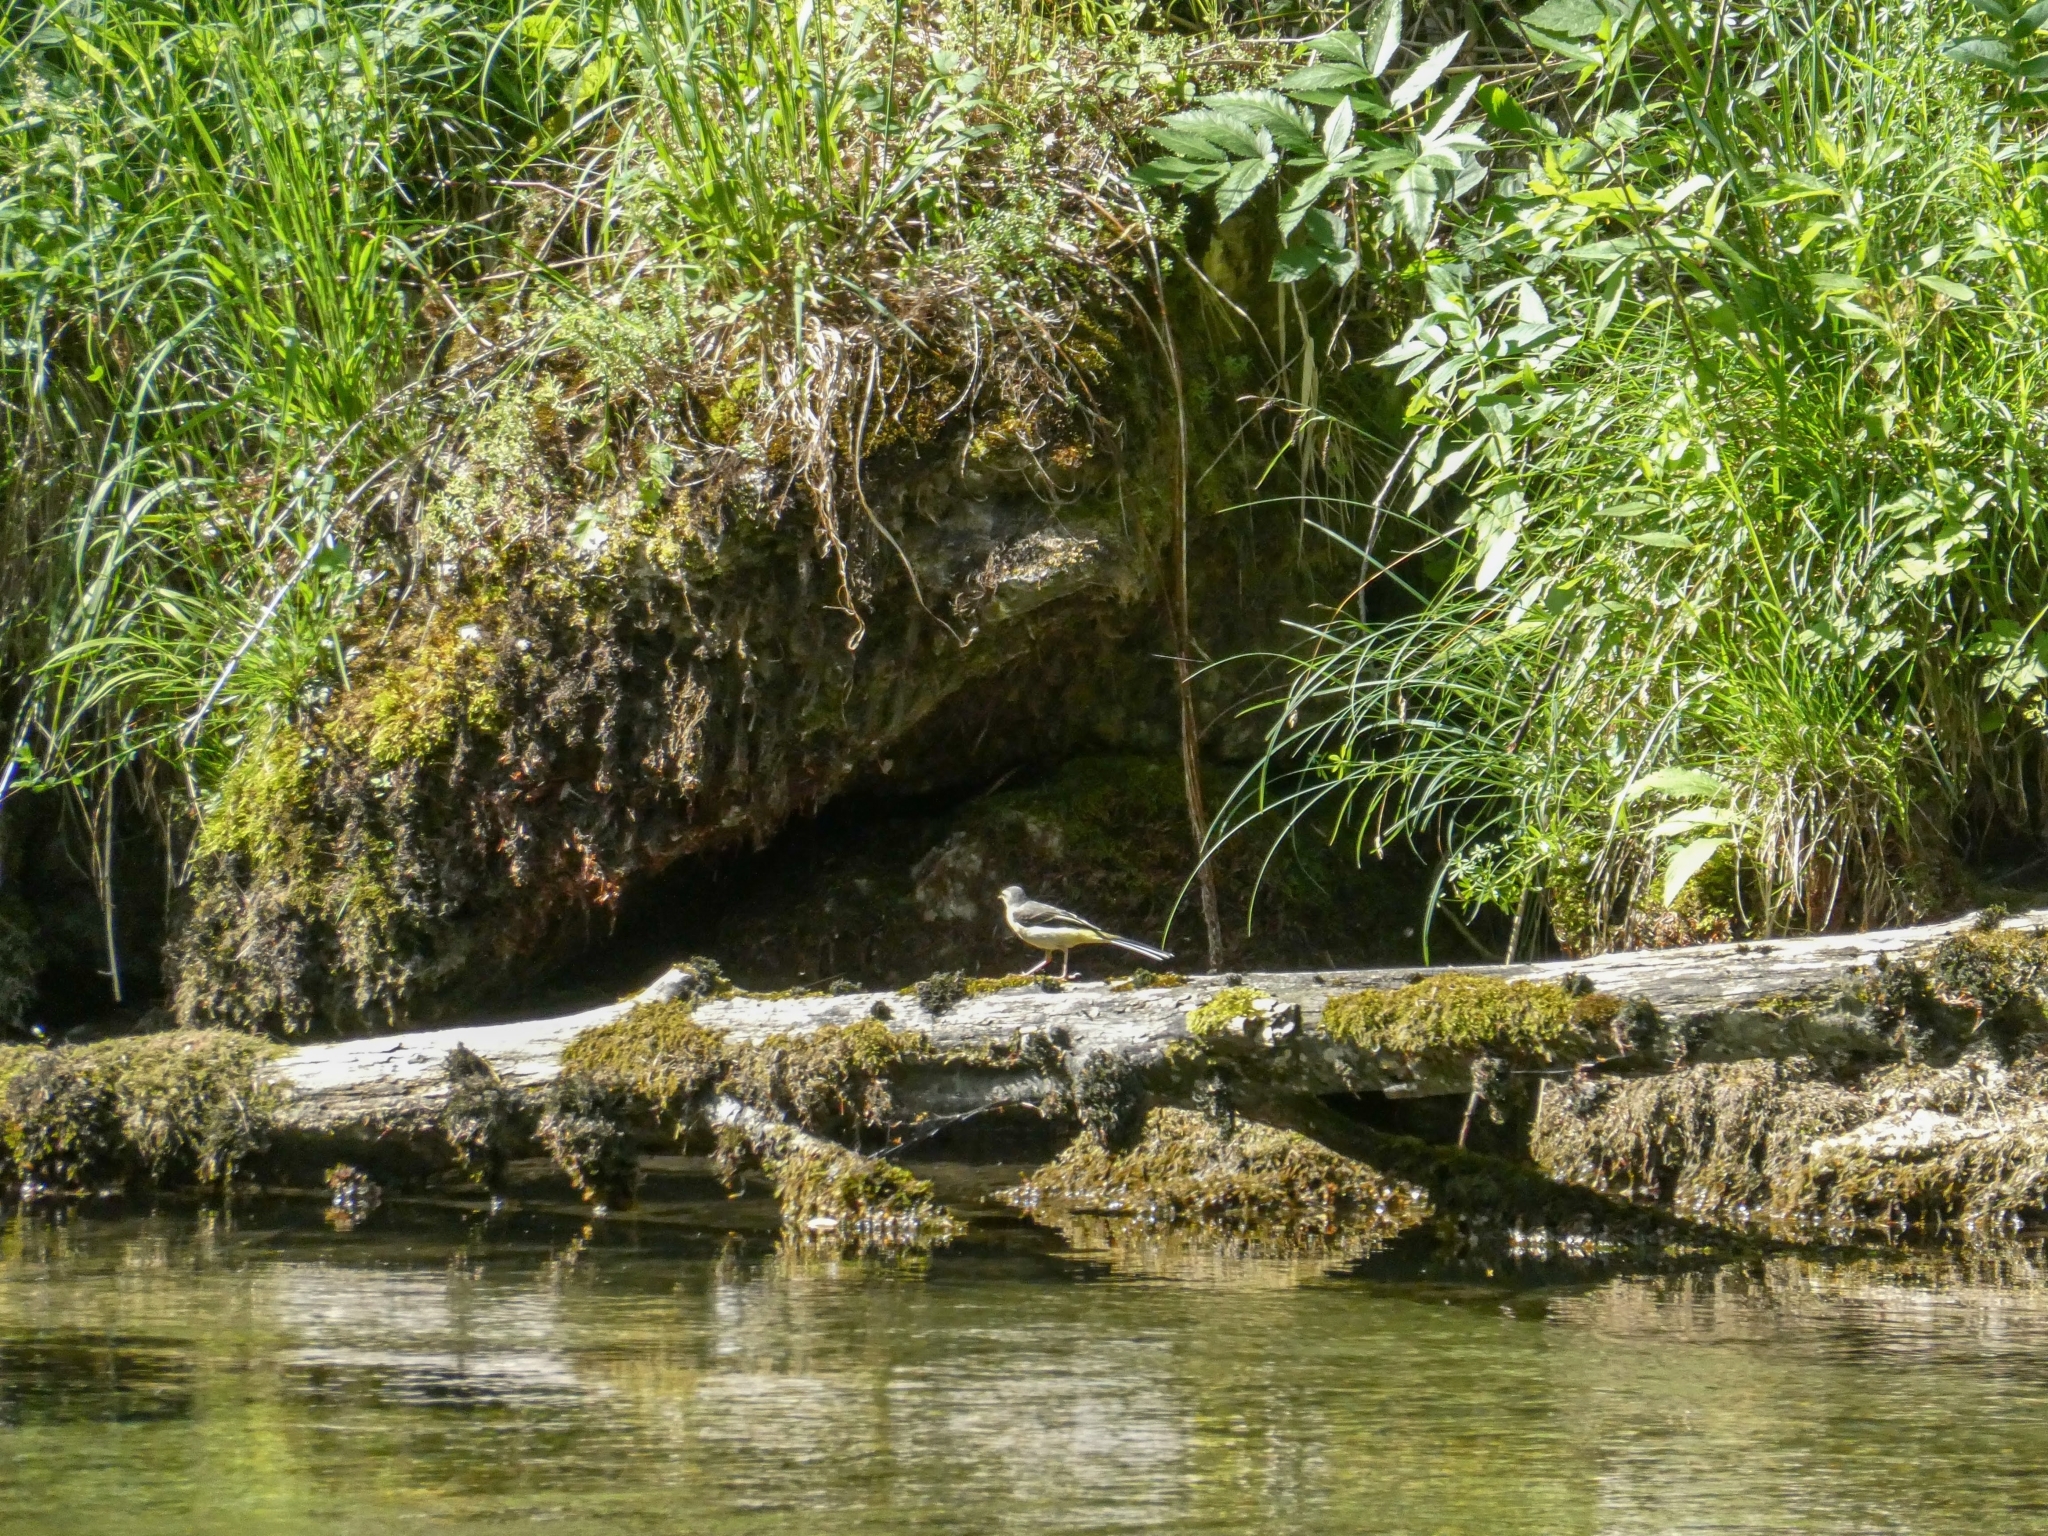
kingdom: Animalia
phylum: Chordata
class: Aves
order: Passeriformes
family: Motacillidae
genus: Motacilla
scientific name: Motacilla cinerea
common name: Grey wagtail
